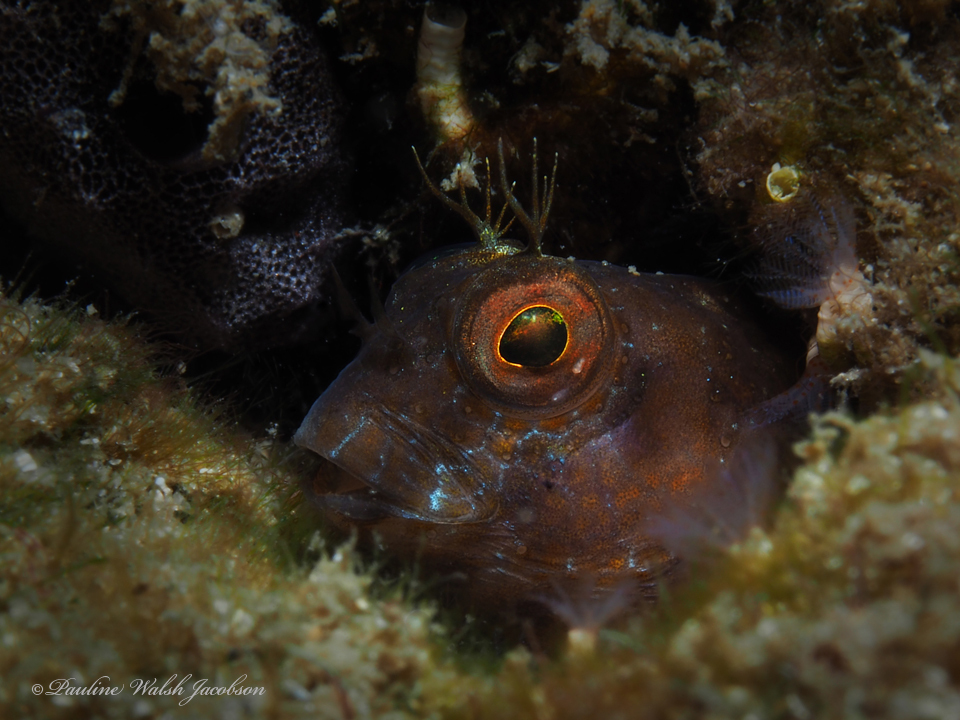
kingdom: Animalia
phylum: Chordata
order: Perciformes
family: Blenniidae
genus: Parablennius
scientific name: Parablennius marmoreus
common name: Seaweed blenny
